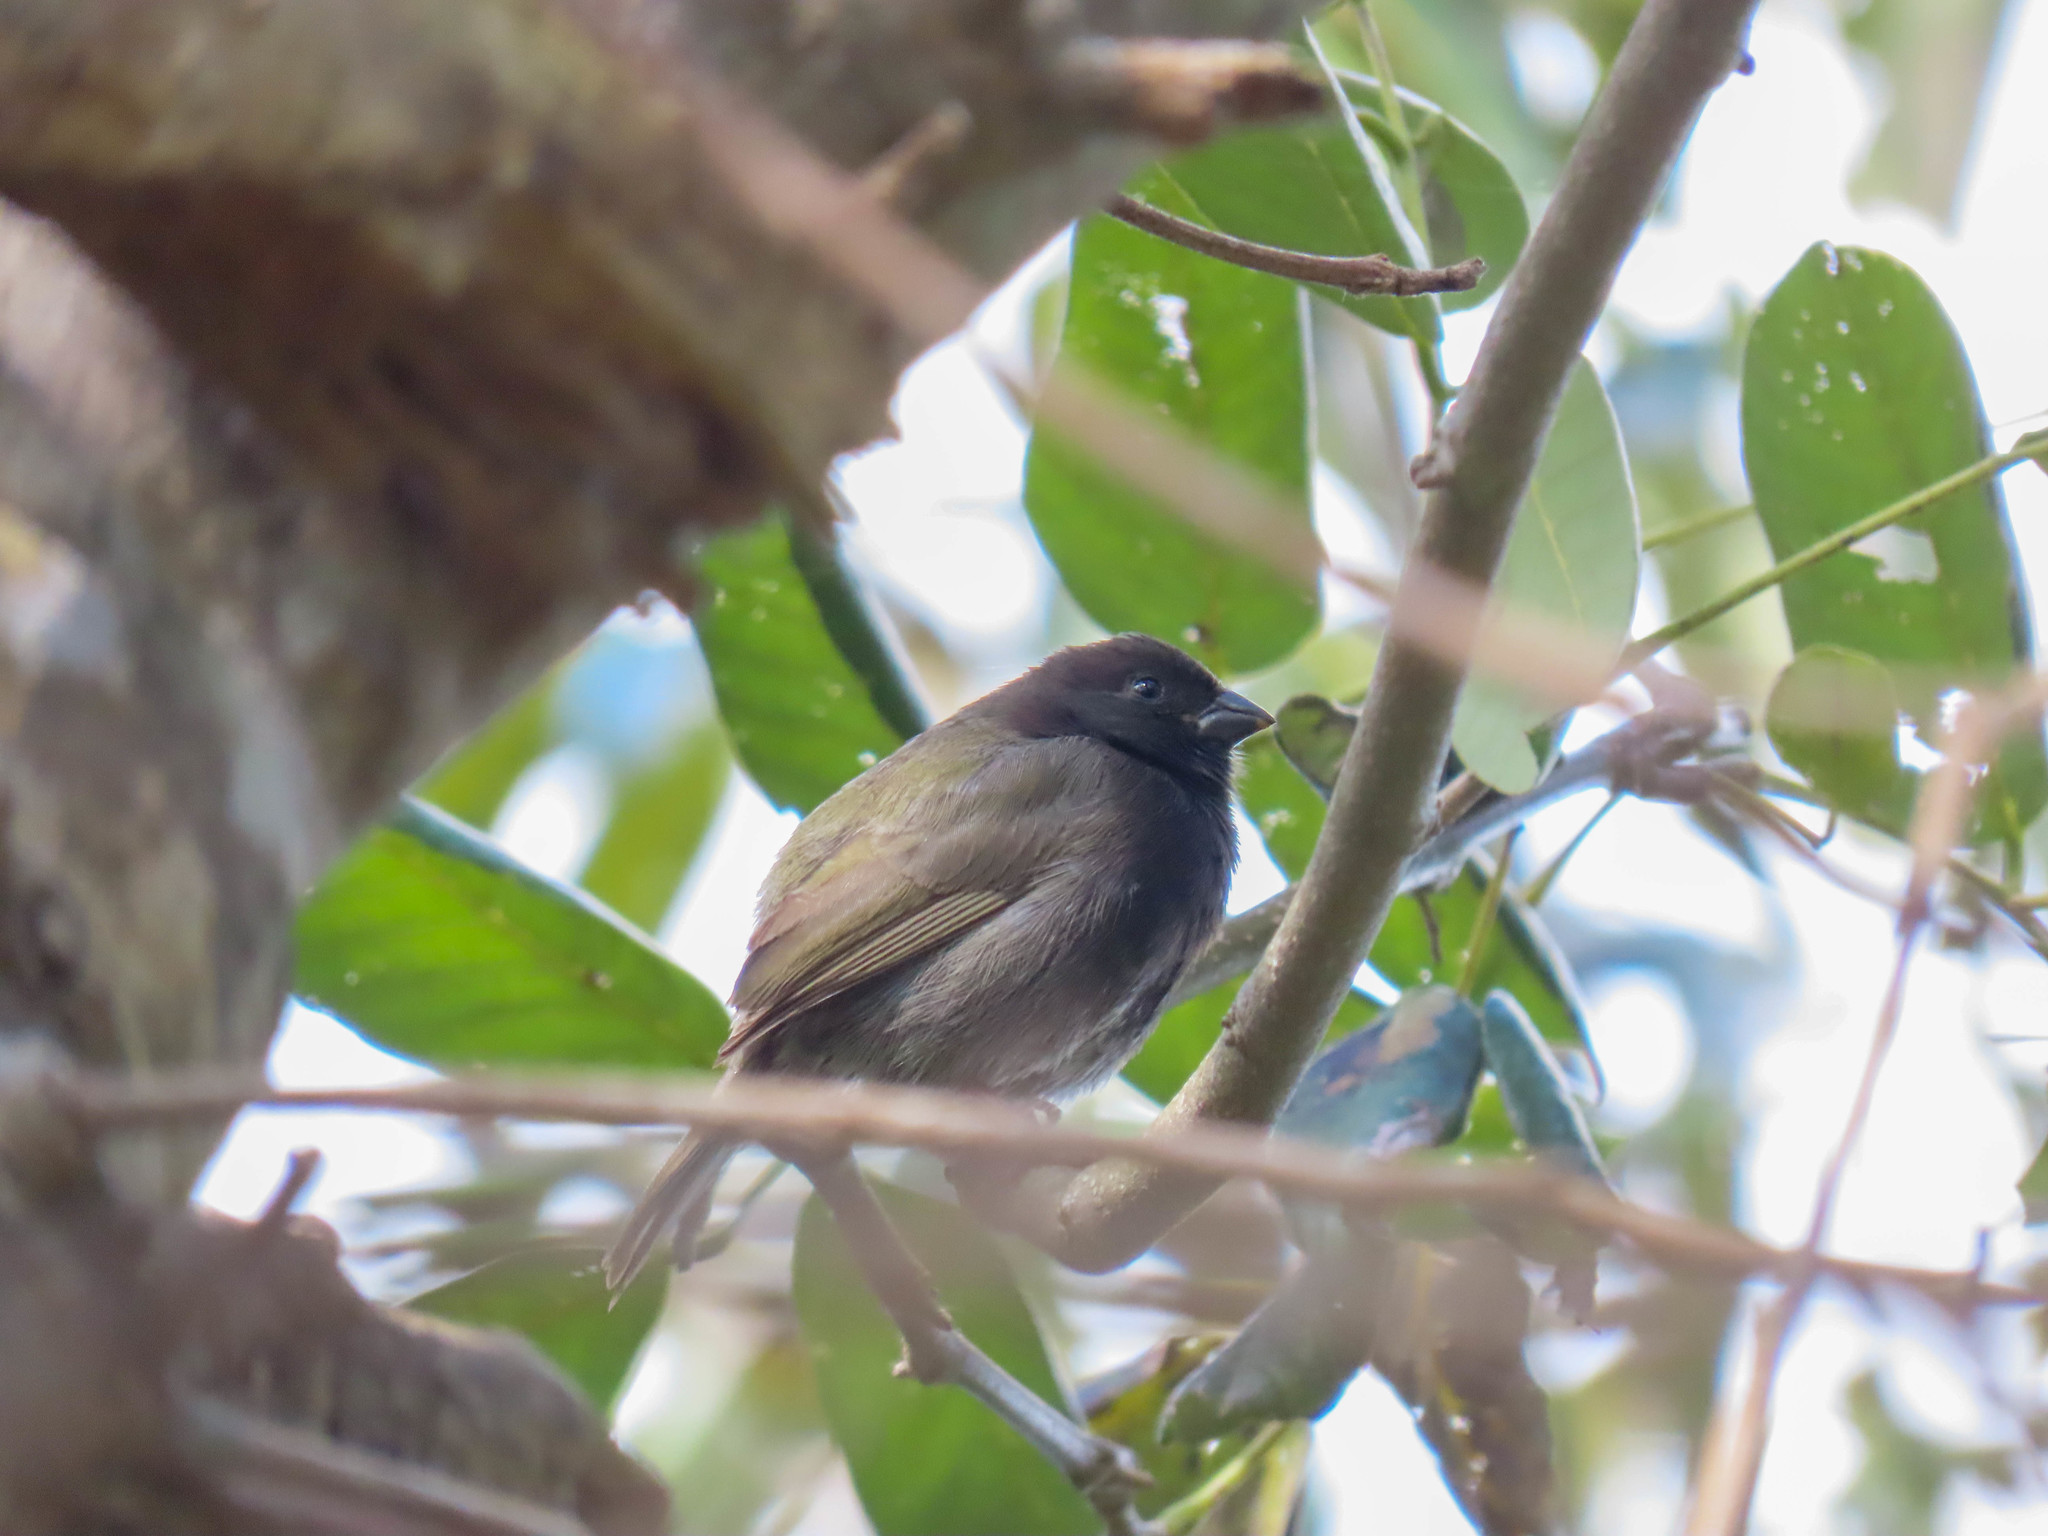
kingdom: Animalia
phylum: Chordata
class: Aves
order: Passeriformes
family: Thraupidae
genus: Melanospiza
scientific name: Melanospiza bicolor
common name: Black-faced grassquit
